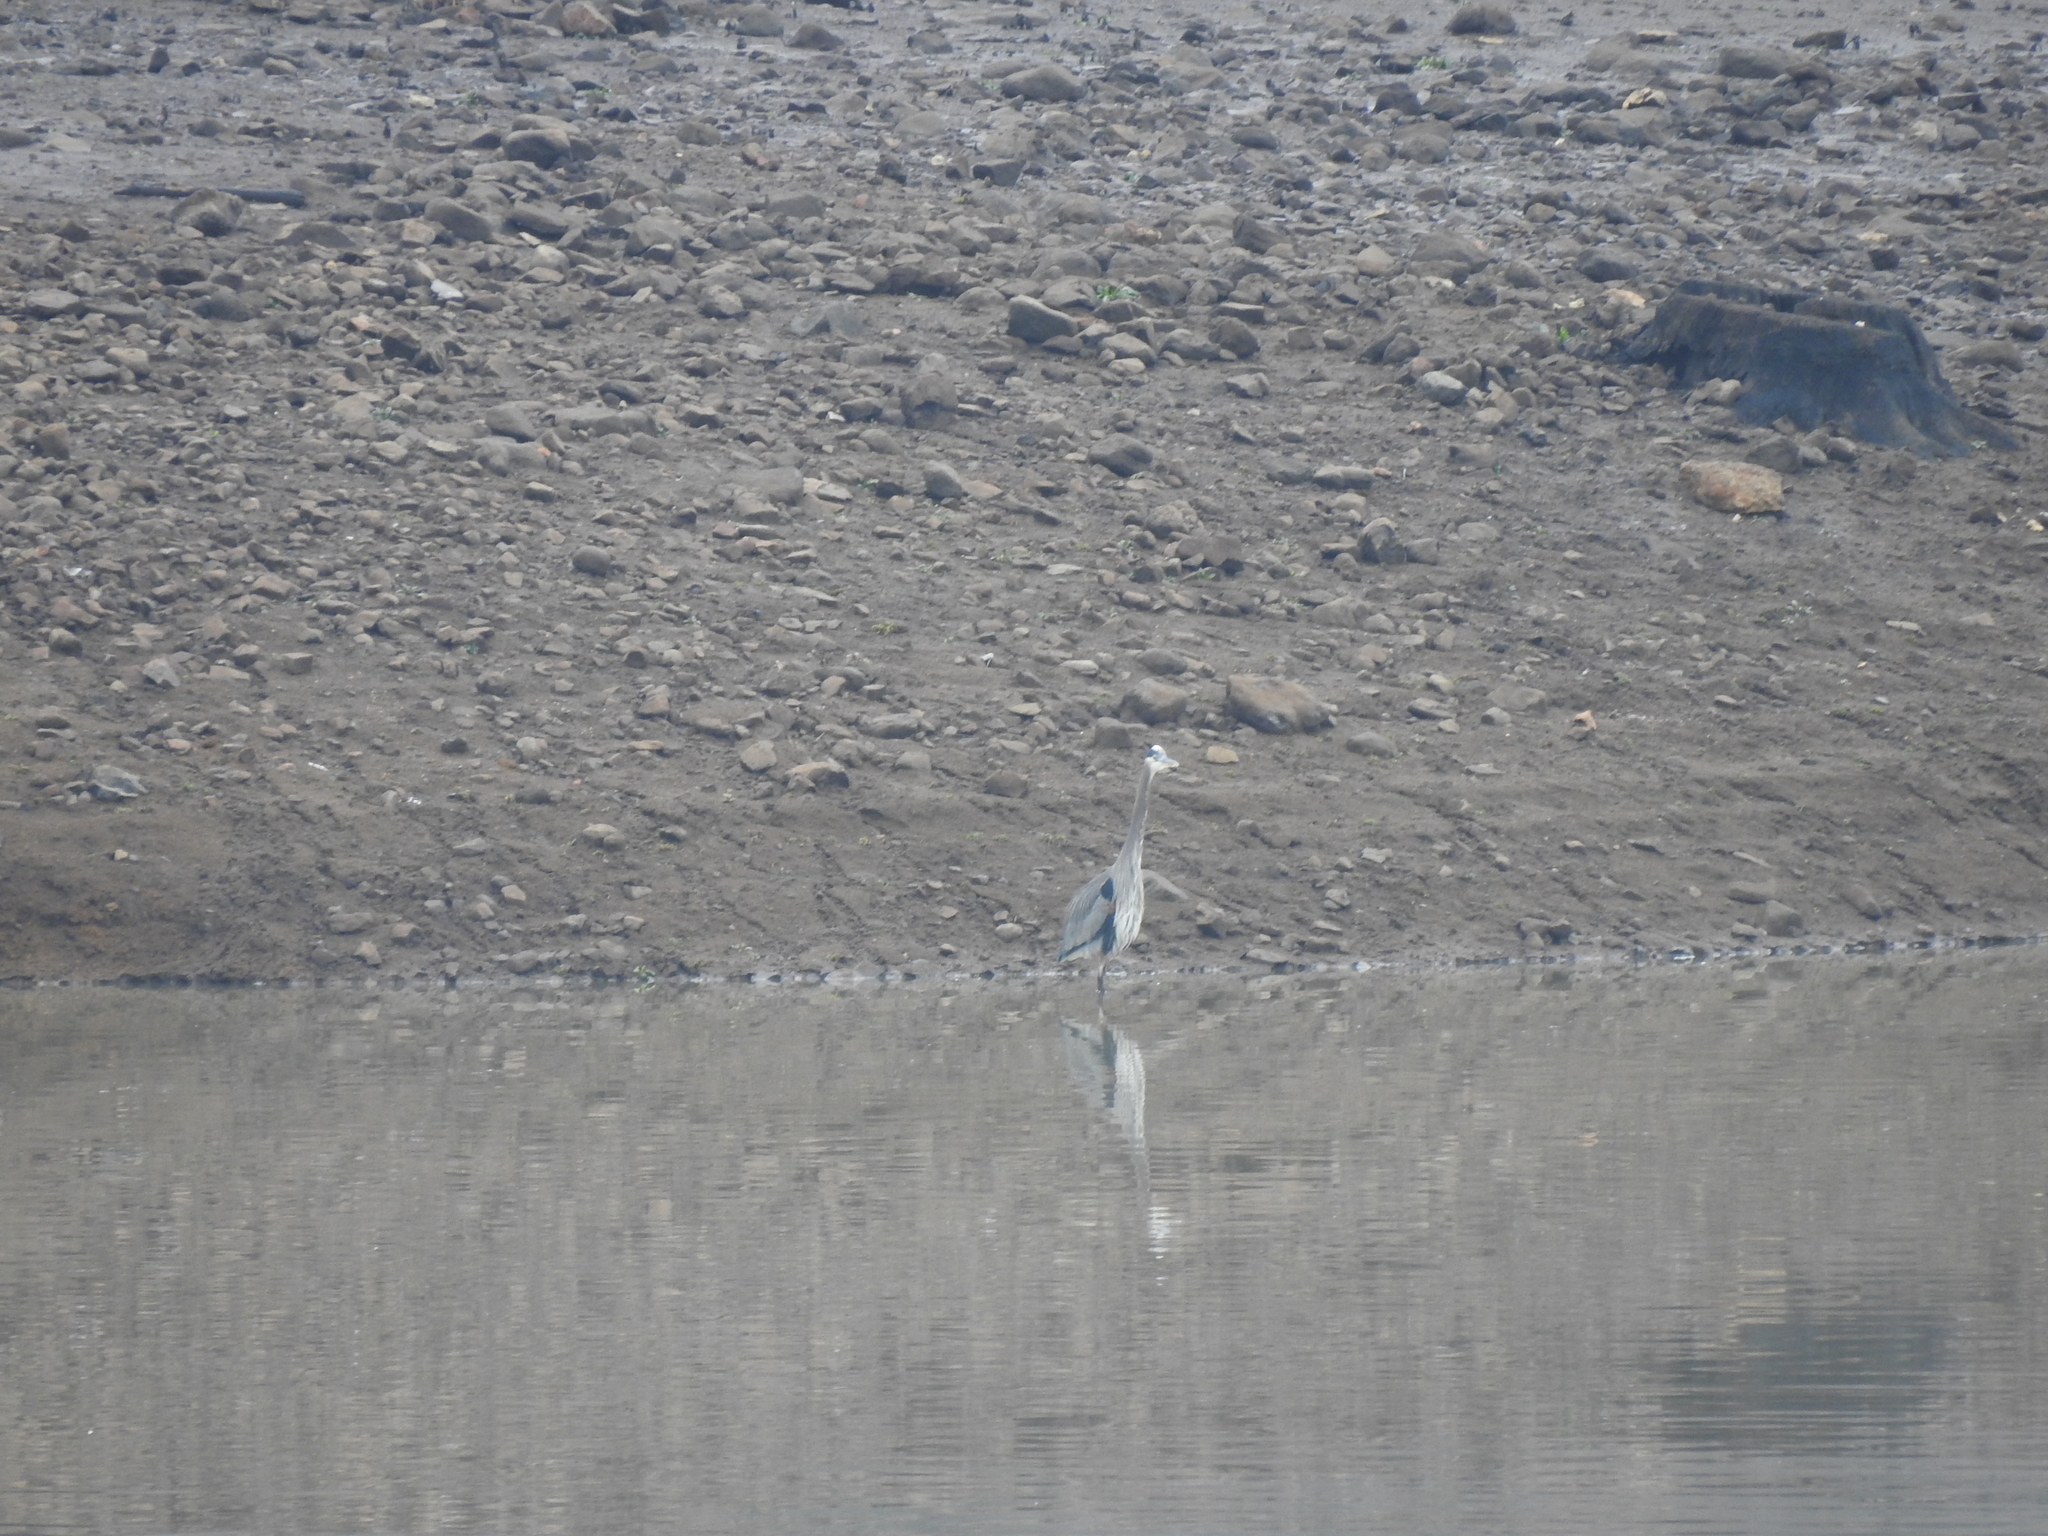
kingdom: Animalia
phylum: Chordata
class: Aves
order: Pelecaniformes
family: Ardeidae
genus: Ardea
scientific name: Ardea herodias
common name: Great blue heron
